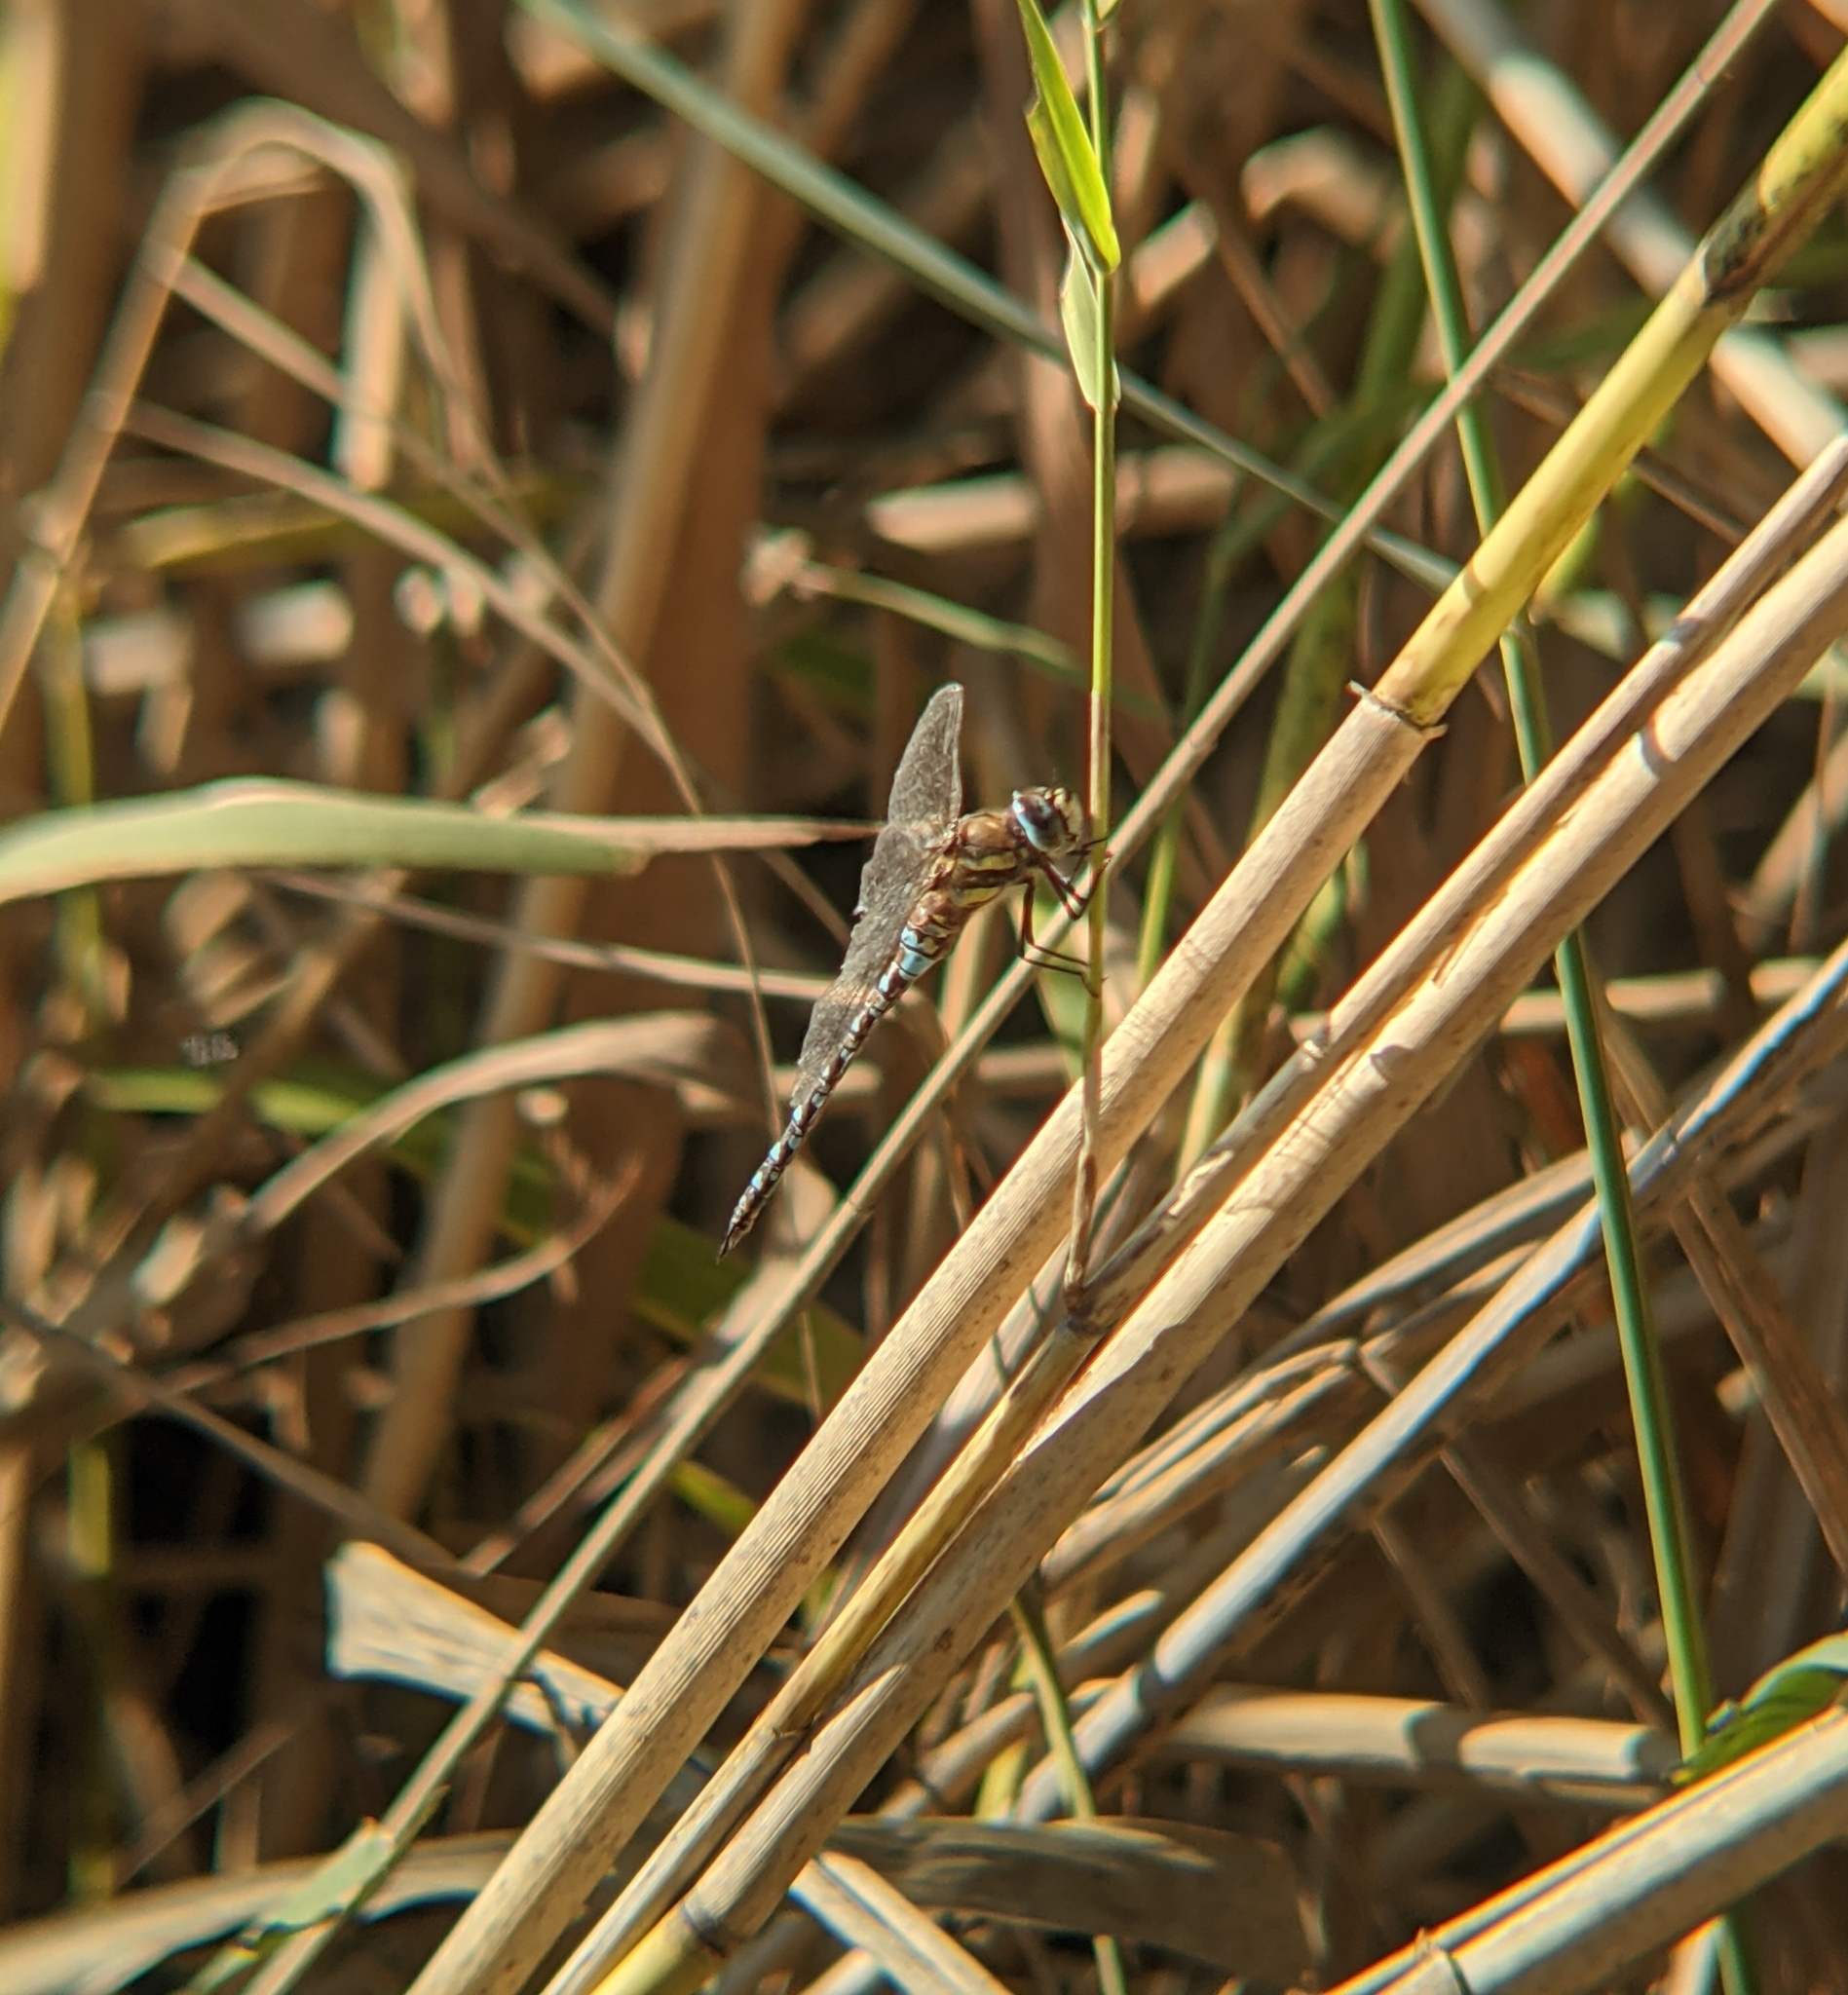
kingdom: Animalia
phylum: Arthropoda
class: Insecta
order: Odonata
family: Aeshnidae
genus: Aeshna
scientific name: Aeshna mixta
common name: Migrant hawker
